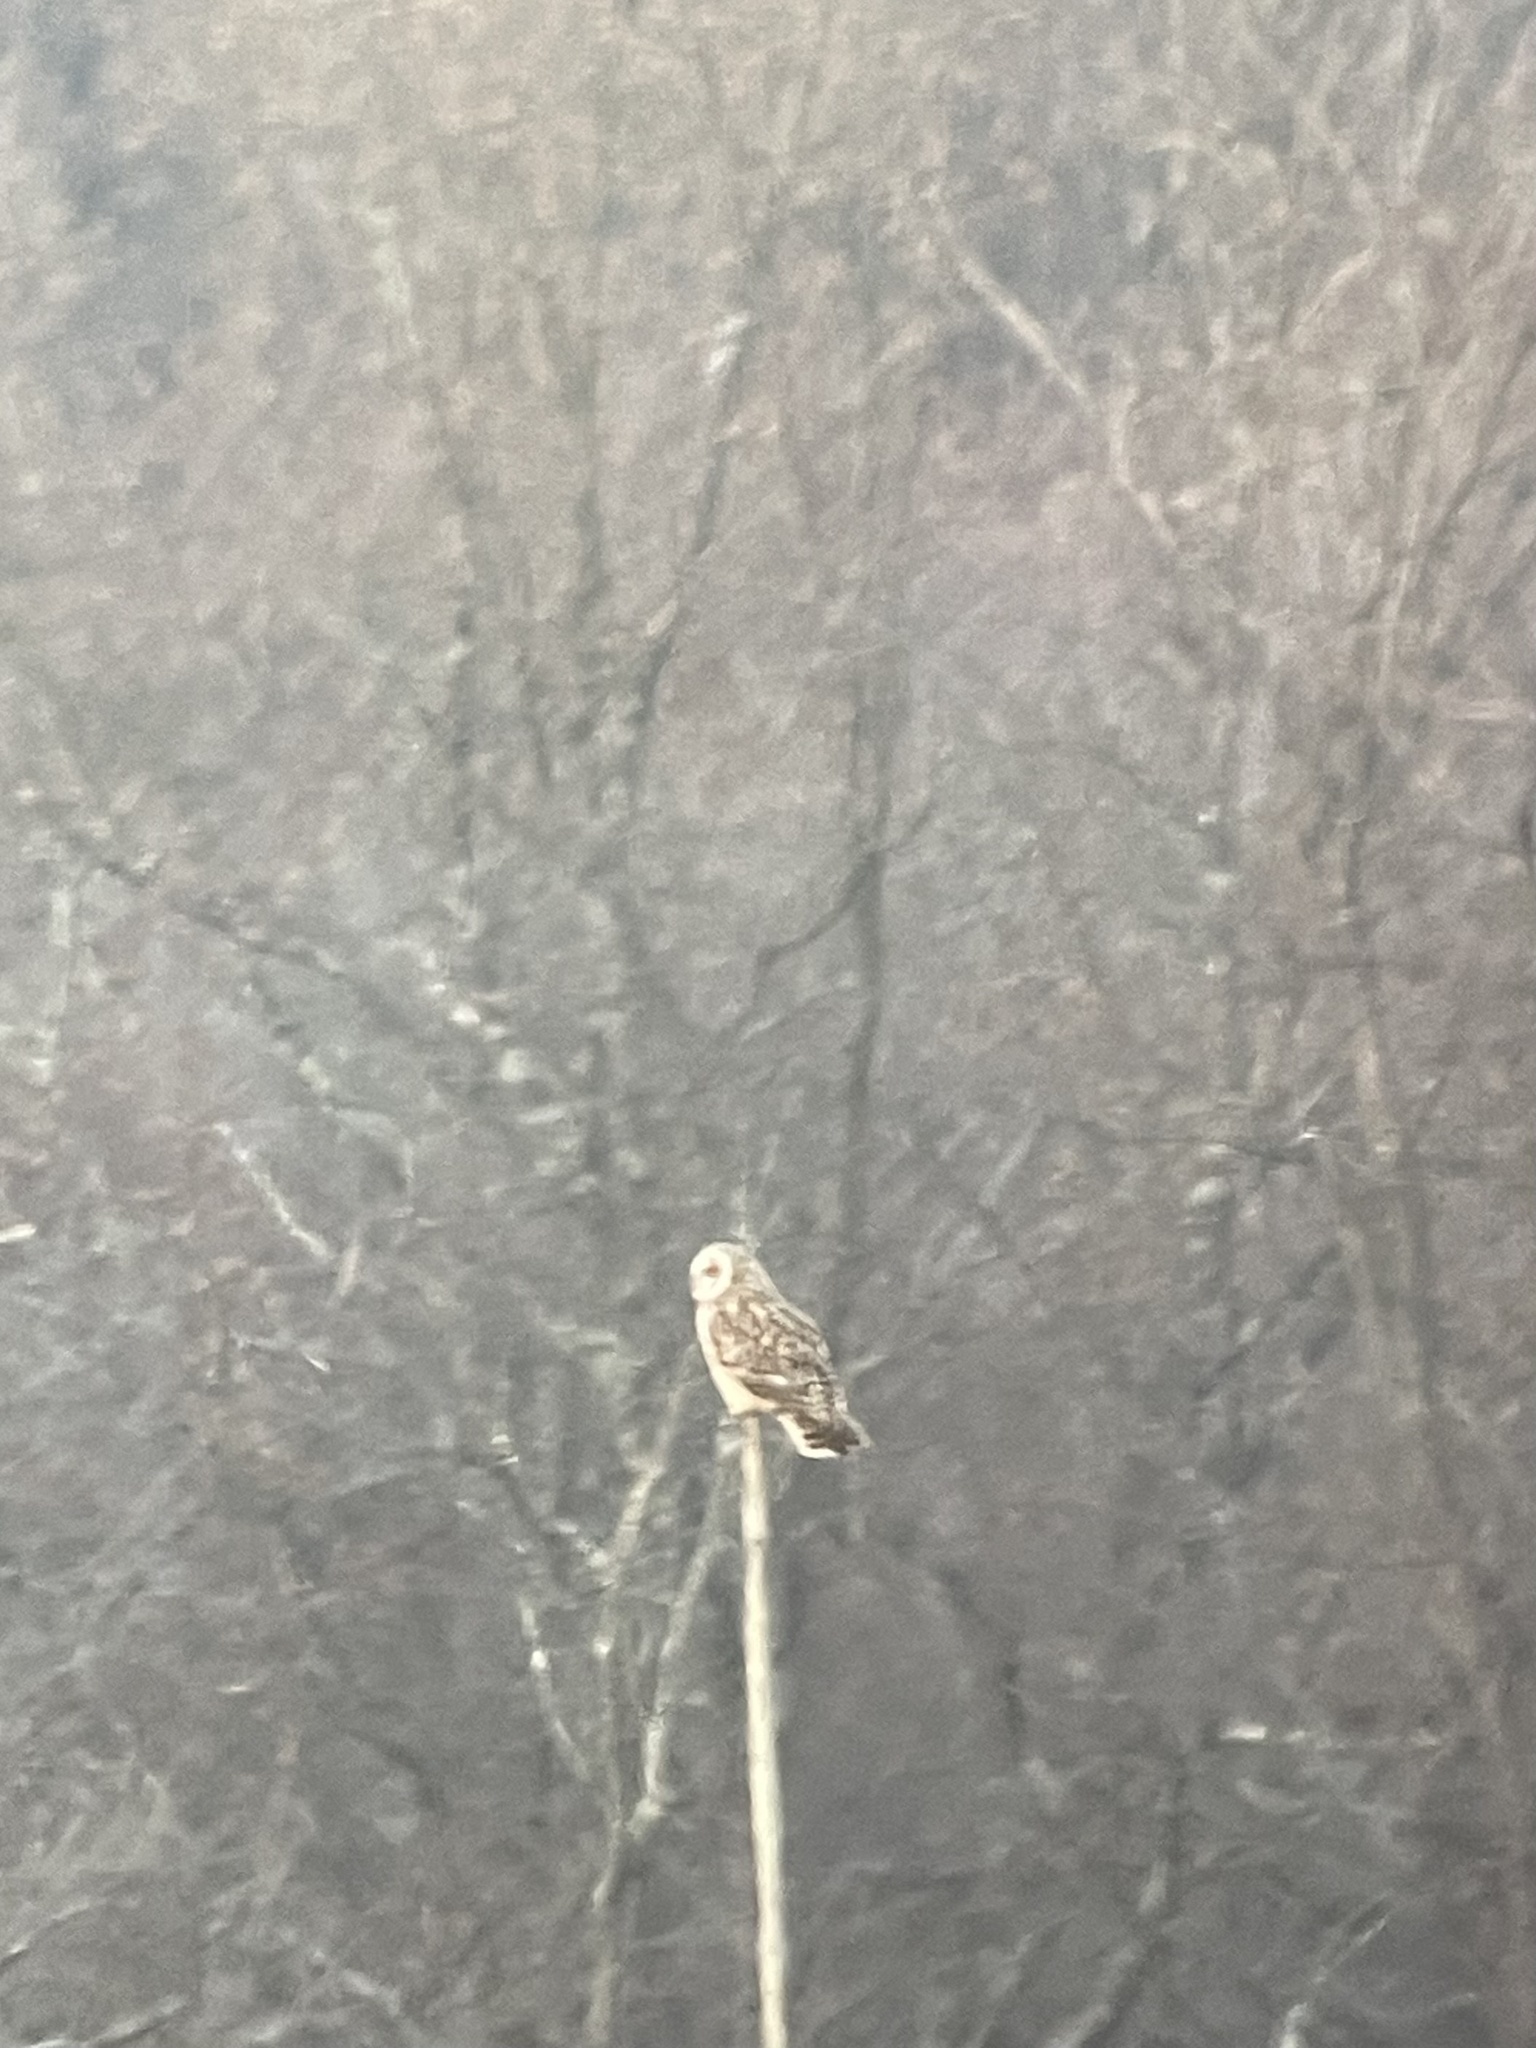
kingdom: Animalia
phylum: Chordata
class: Aves
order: Strigiformes
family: Strigidae
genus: Asio
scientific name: Asio flammeus
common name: Short-eared owl
